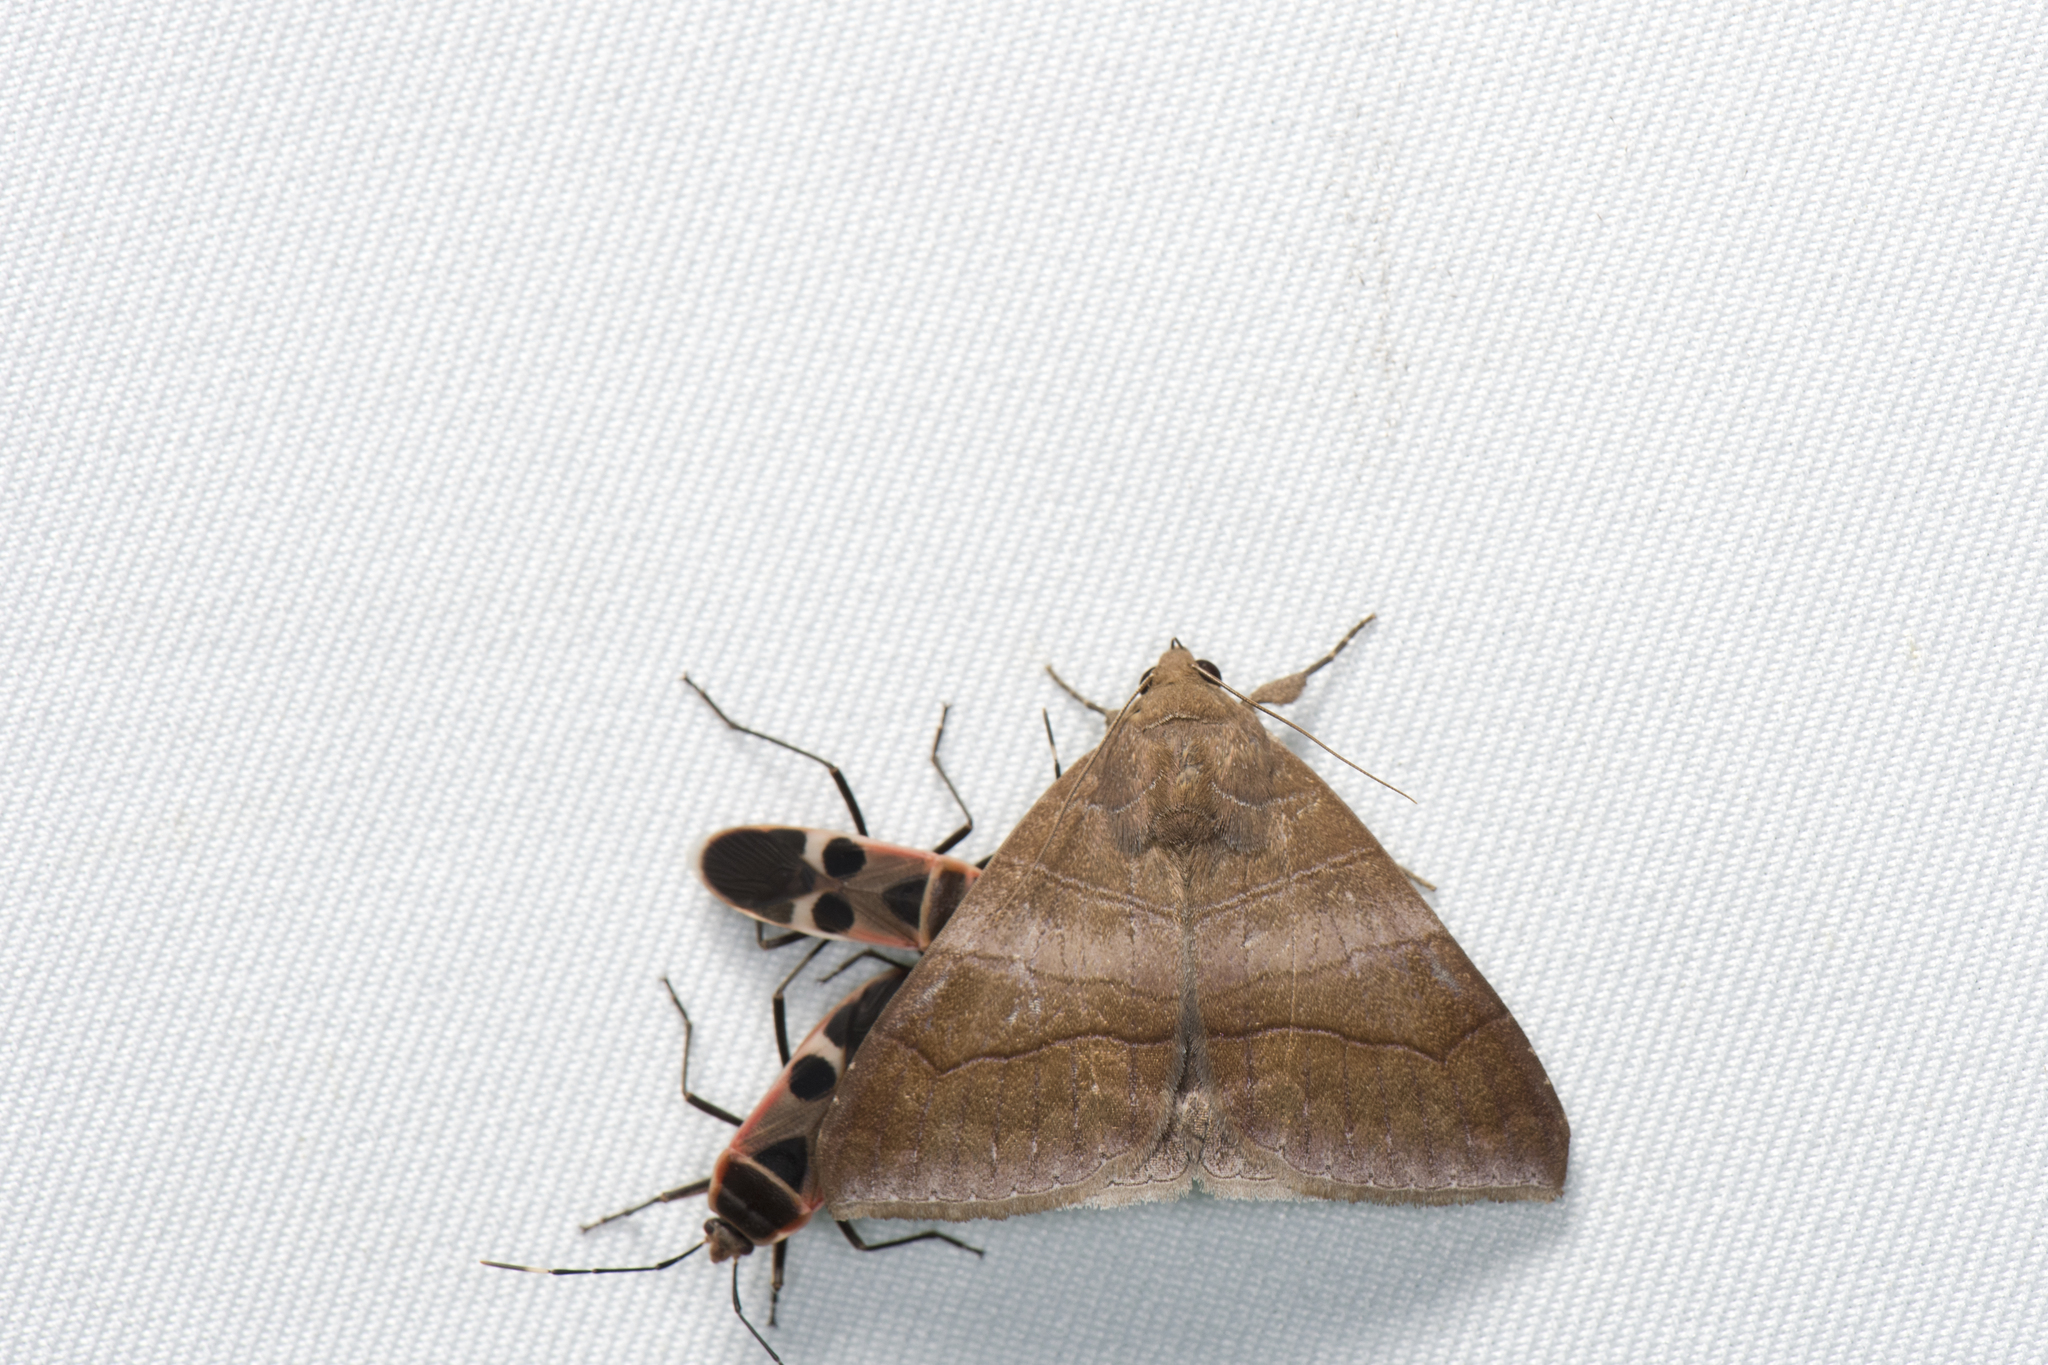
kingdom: Animalia
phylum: Arthropoda
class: Insecta
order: Lepidoptera
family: Erebidae
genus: Bastilla
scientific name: Bastilla absentimacula
